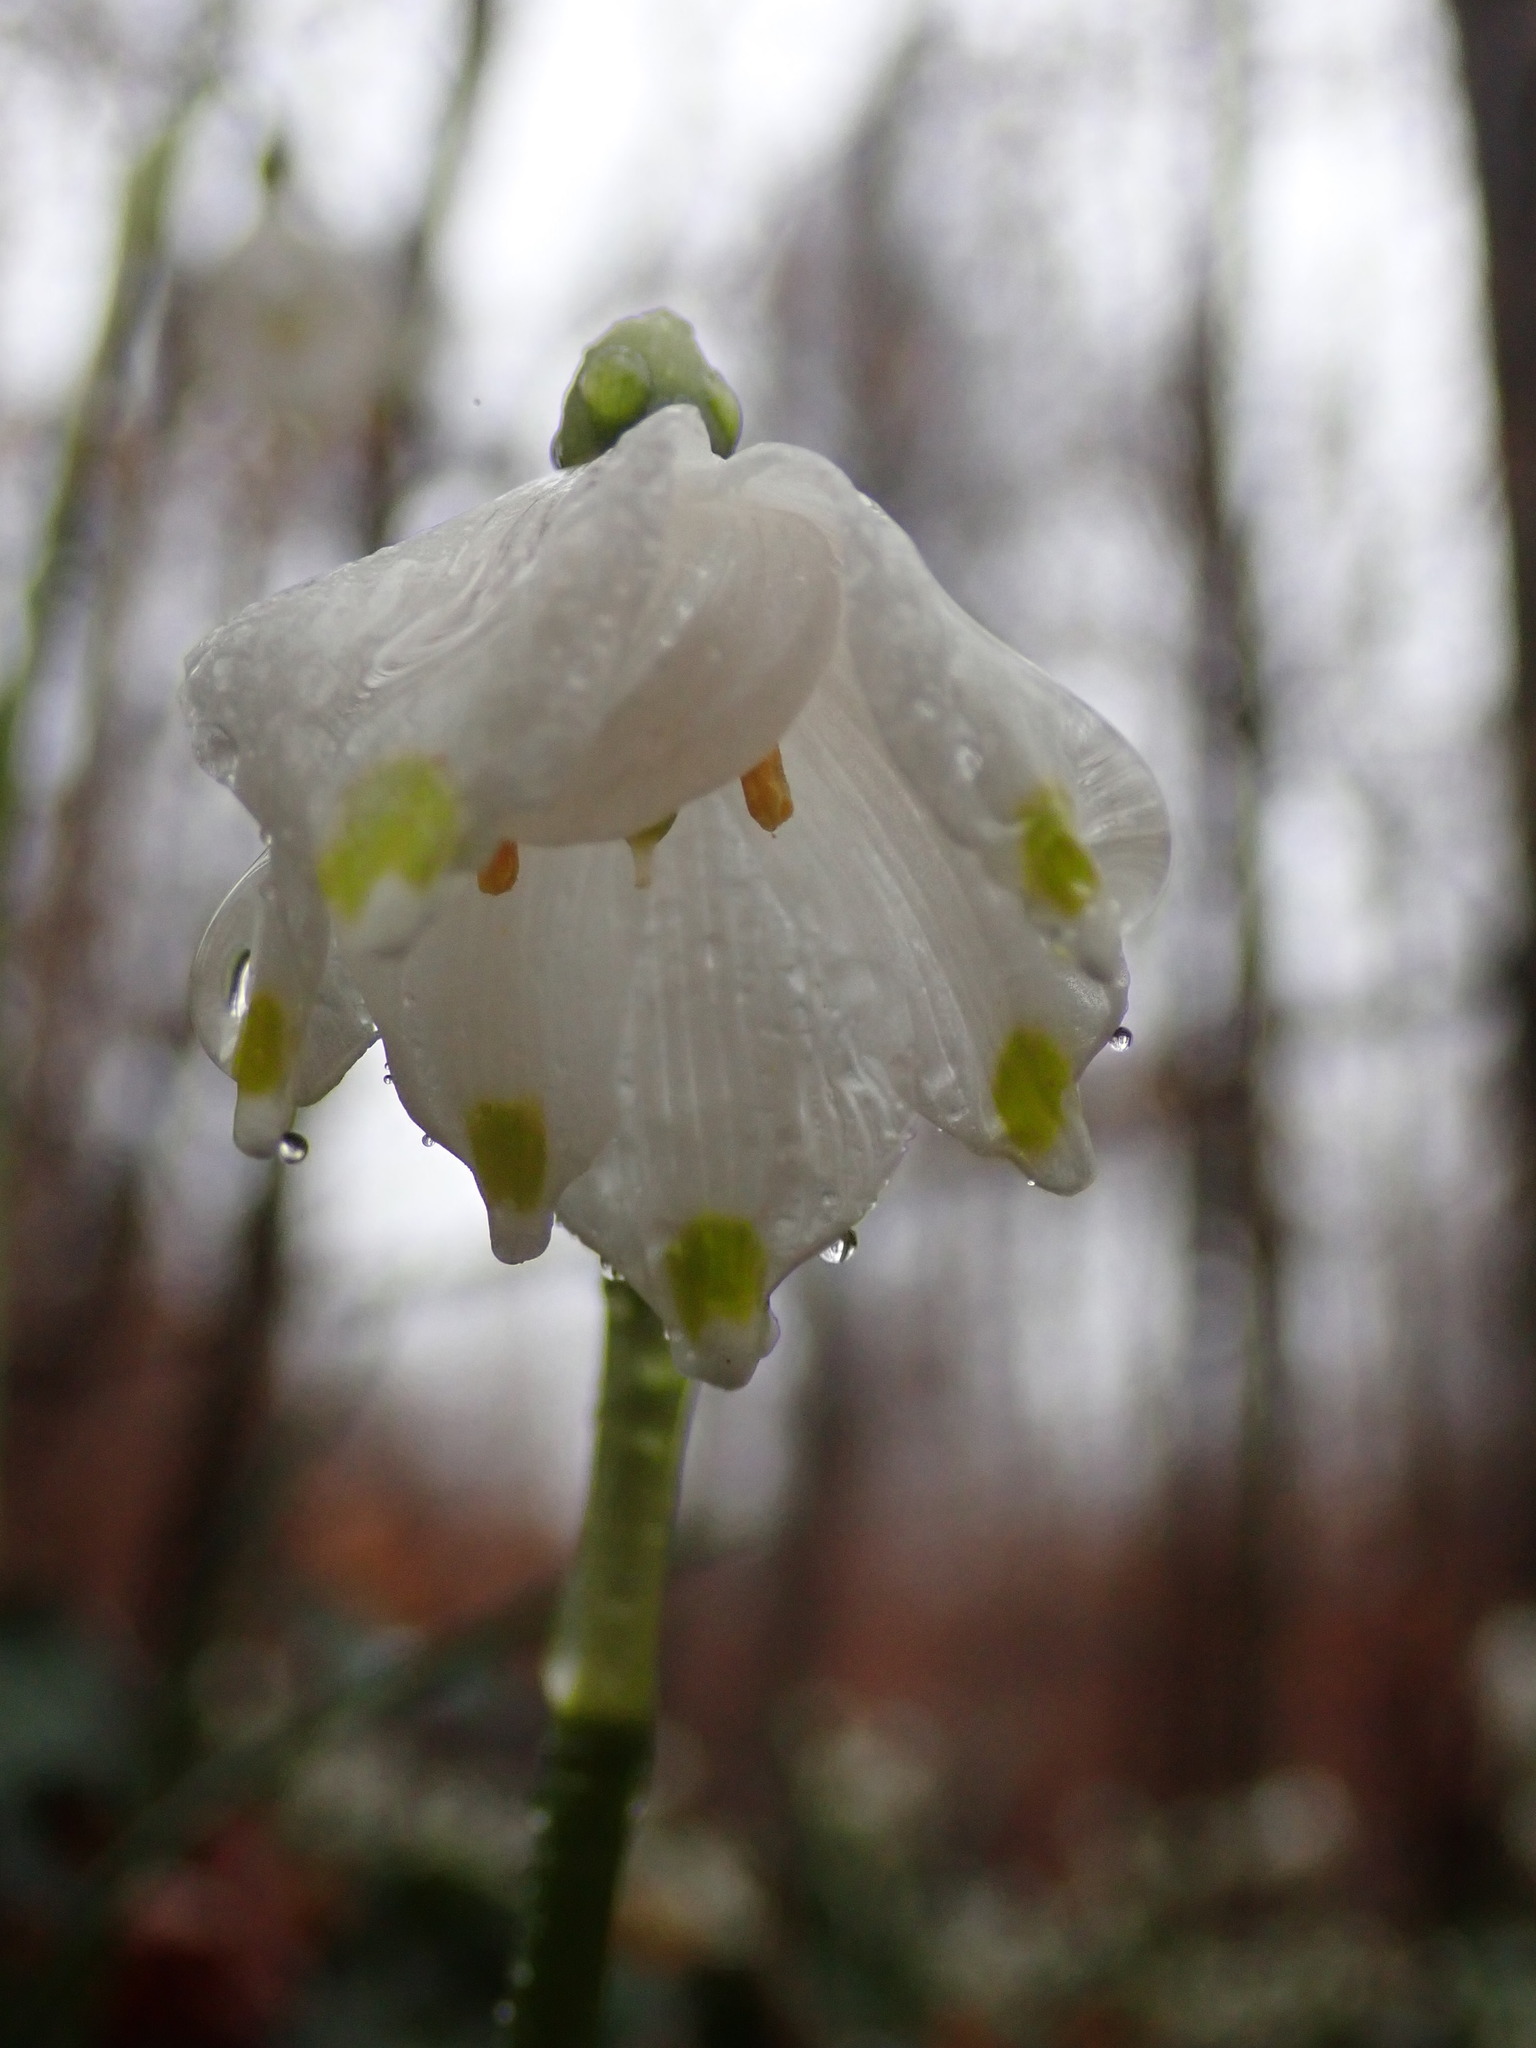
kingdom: Plantae
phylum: Tracheophyta
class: Liliopsida
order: Asparagales
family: Amaryllidaceae
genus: Leucojum
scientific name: Leucojum vernum
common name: Spring snowflake
